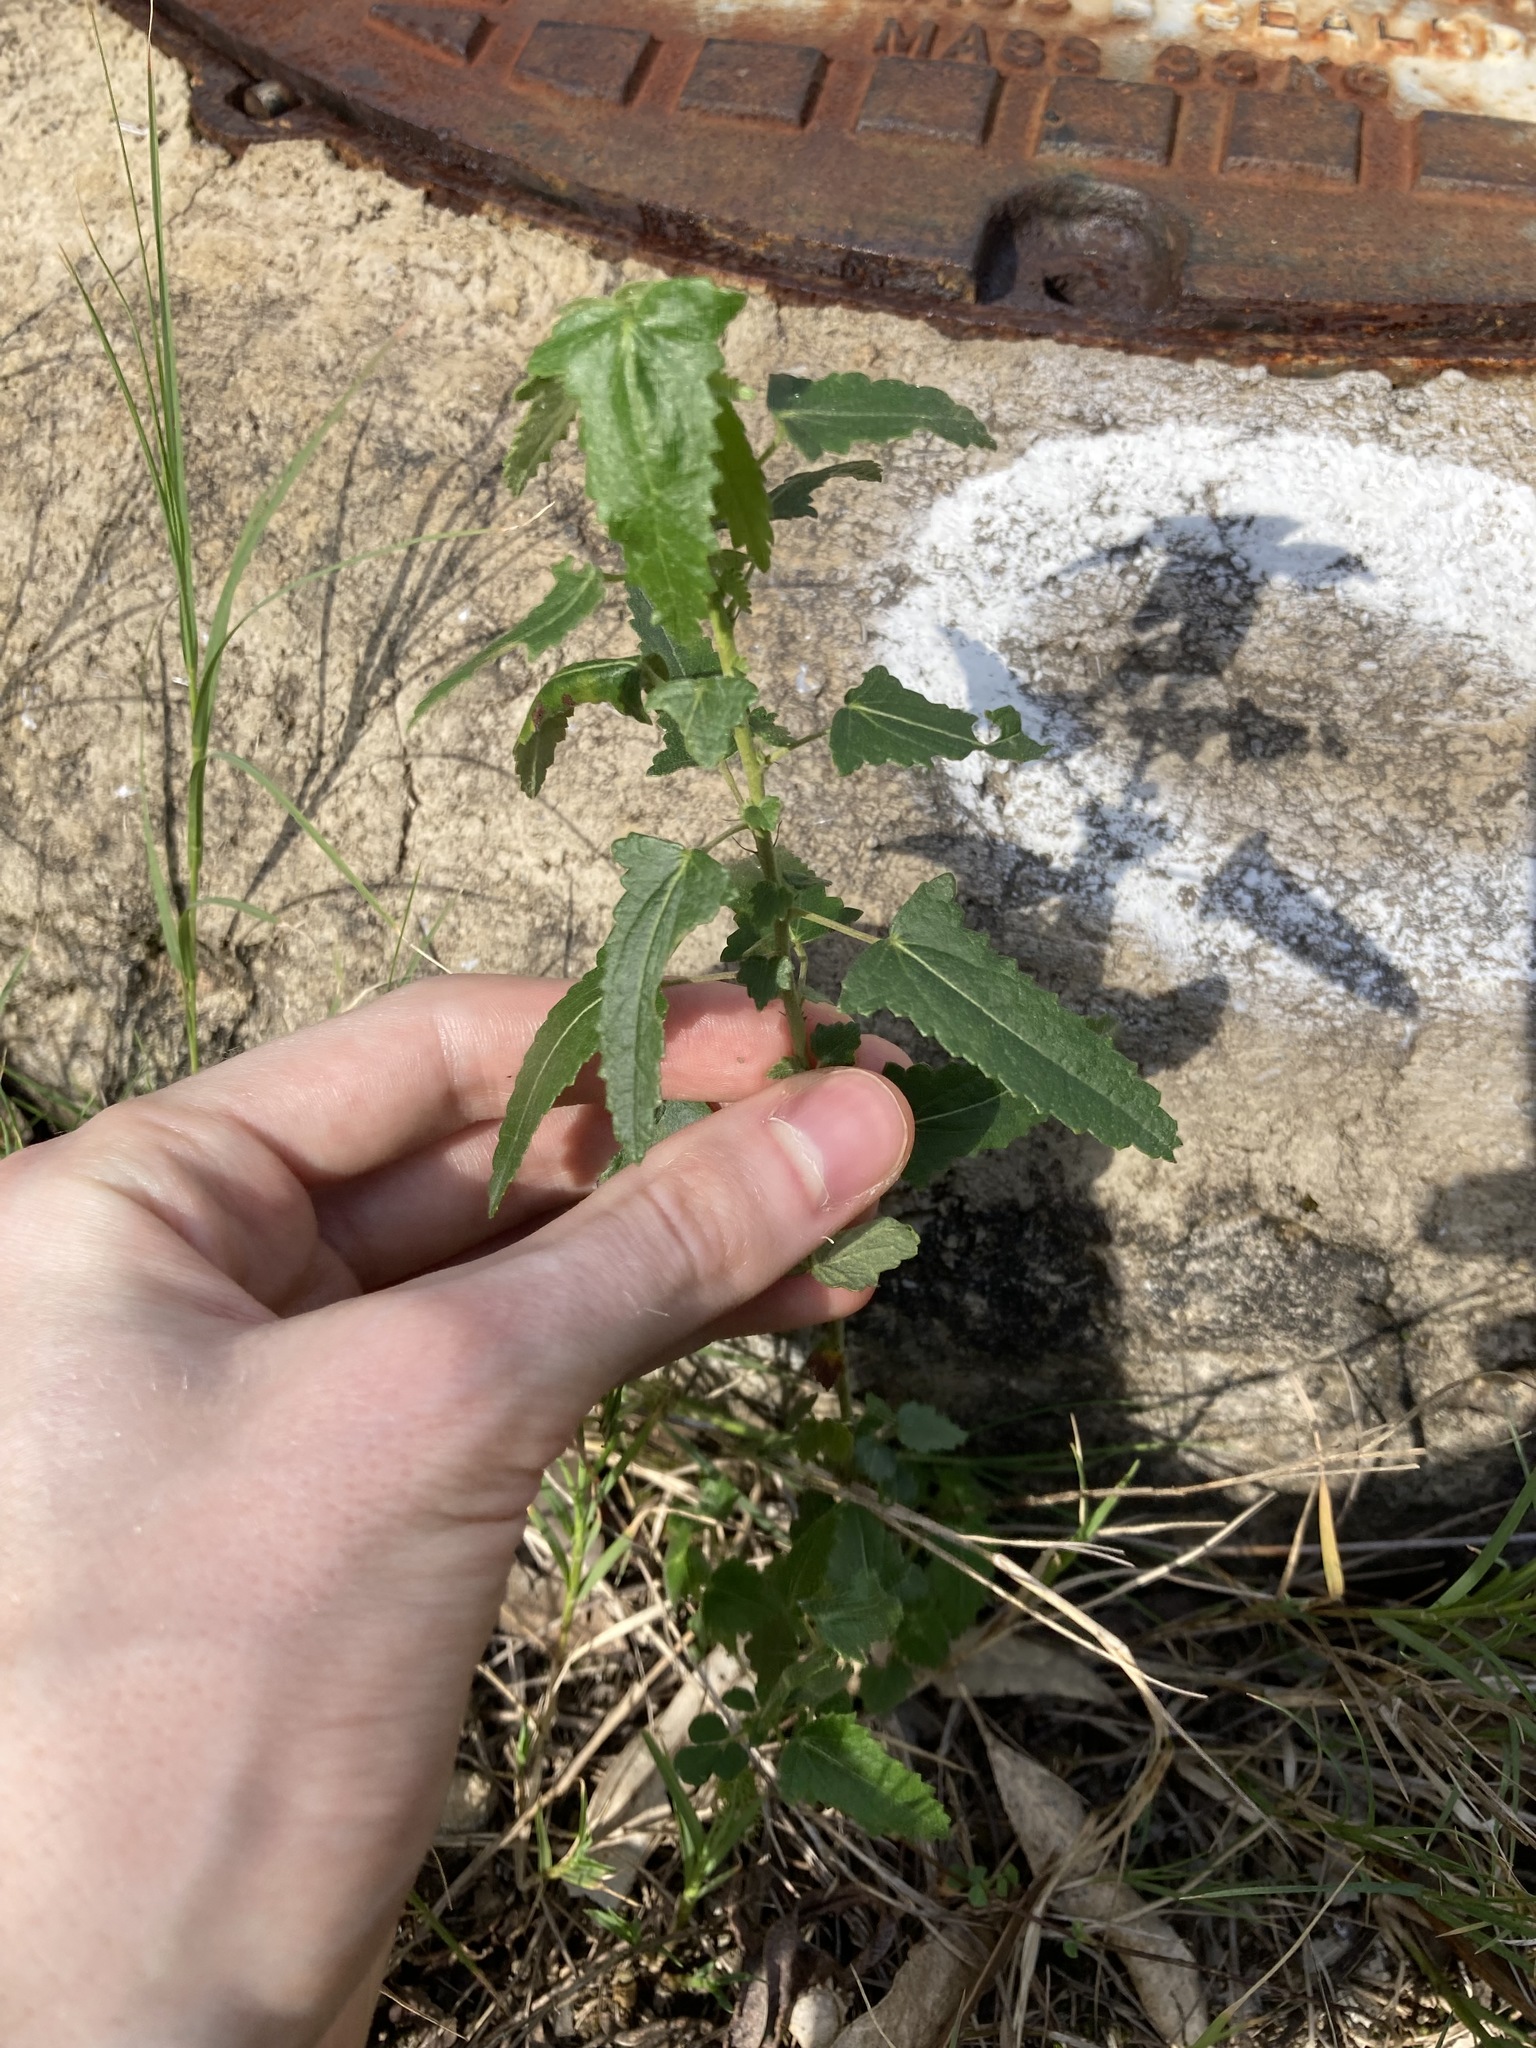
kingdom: Plantae
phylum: Tracheophyta
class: Magnoliopsida
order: Malvales
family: Malvaceae
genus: Pavonia
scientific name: Pavonia hastata
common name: Spearleaf swampmallow
